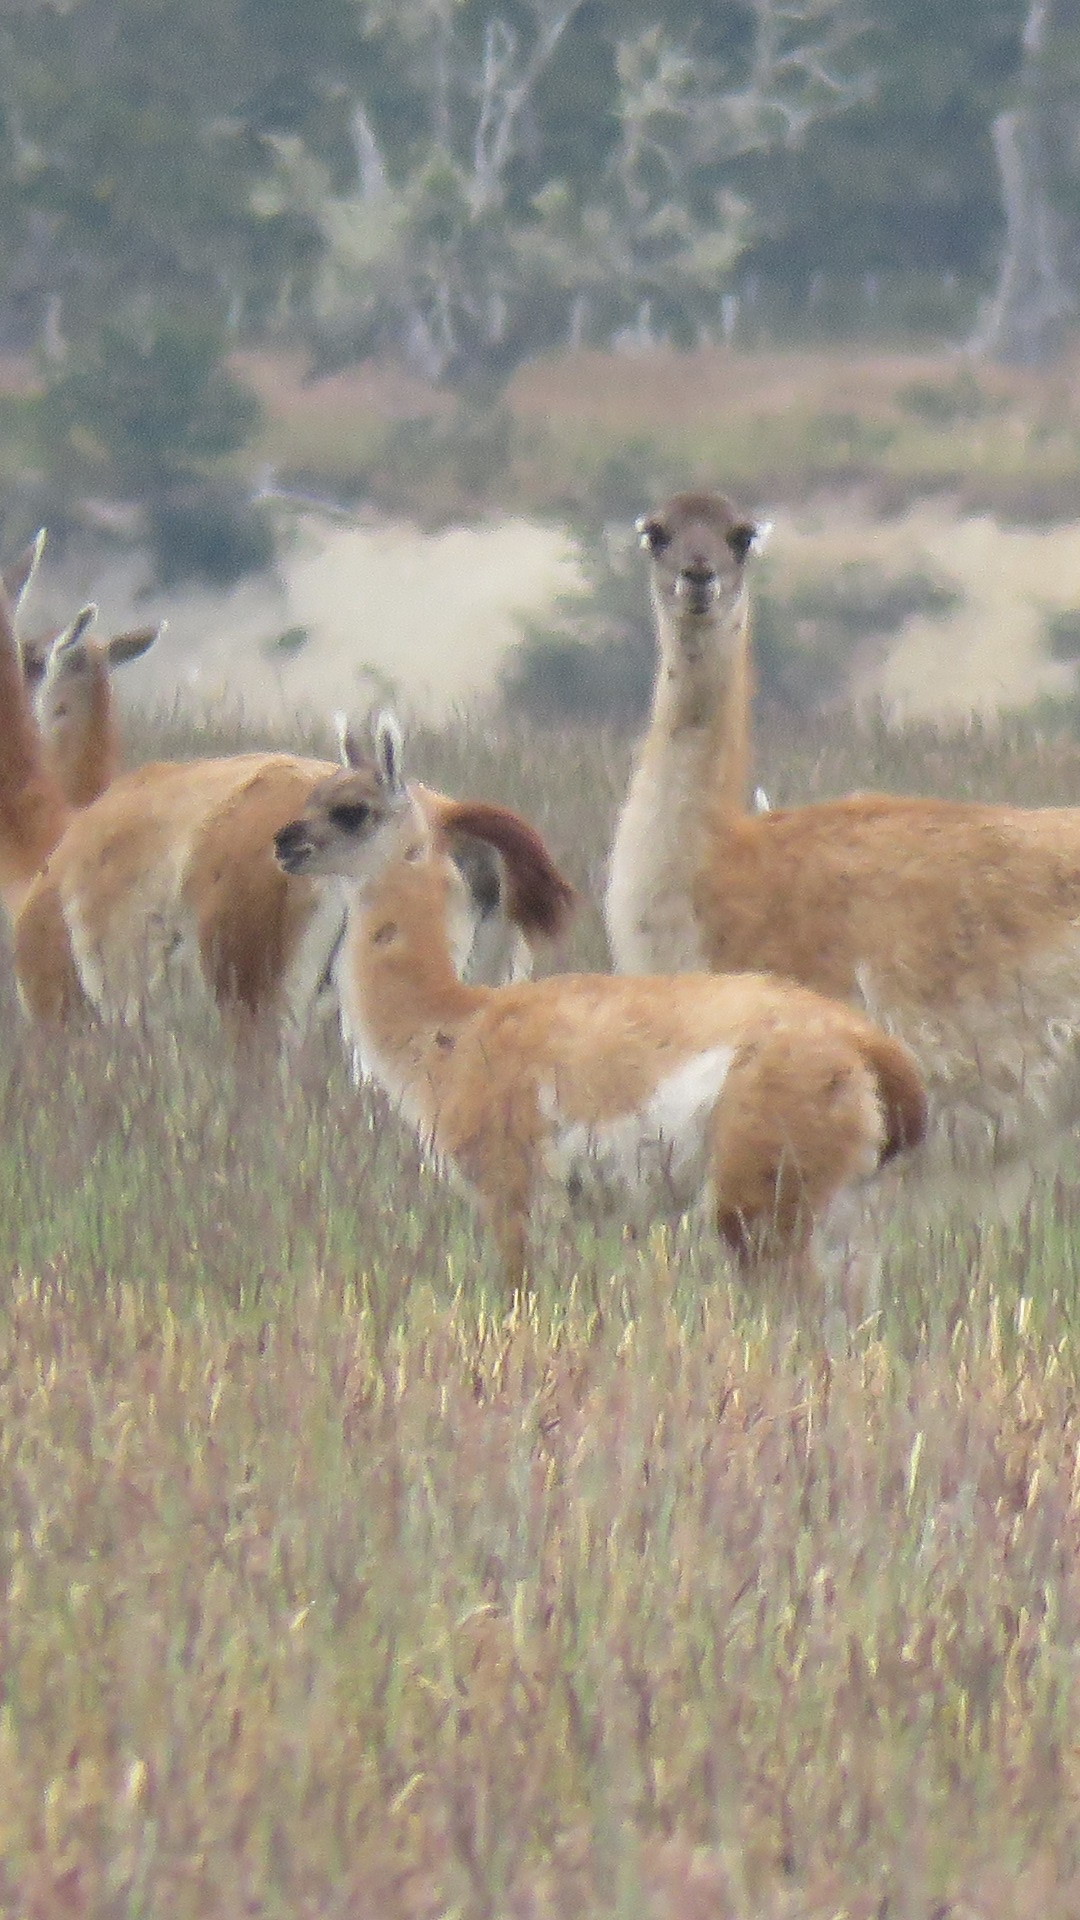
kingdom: Animalia
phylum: Chordata
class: Mammalia
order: Artiodactyla
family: Camelidae
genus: Lama
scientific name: Lama glama
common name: Llama
